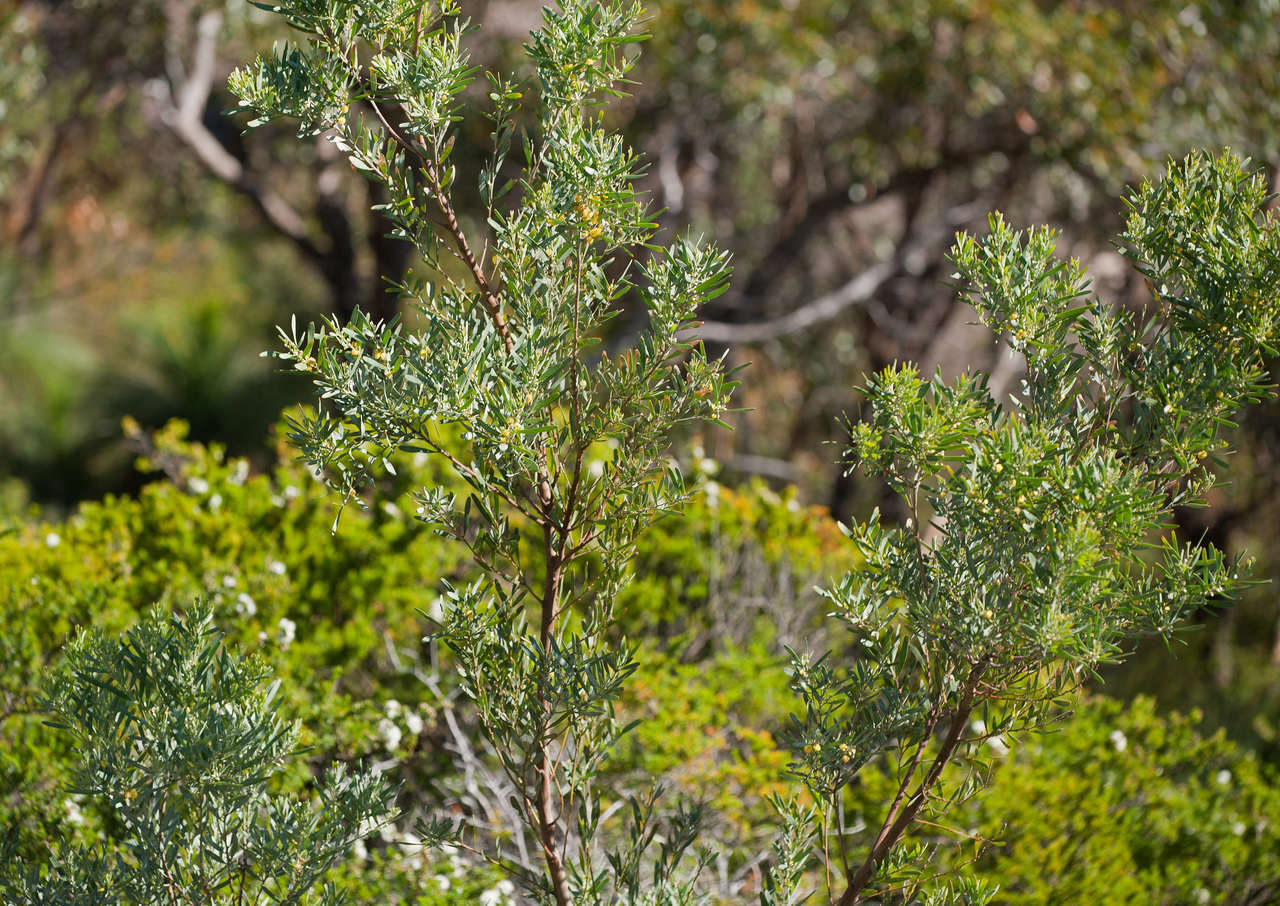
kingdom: Plantae
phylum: Tracheophyta
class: Magnoliopsida
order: Fabales
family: Fabaceae
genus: Acacia
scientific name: Acacia stricta
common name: Hop wattle
